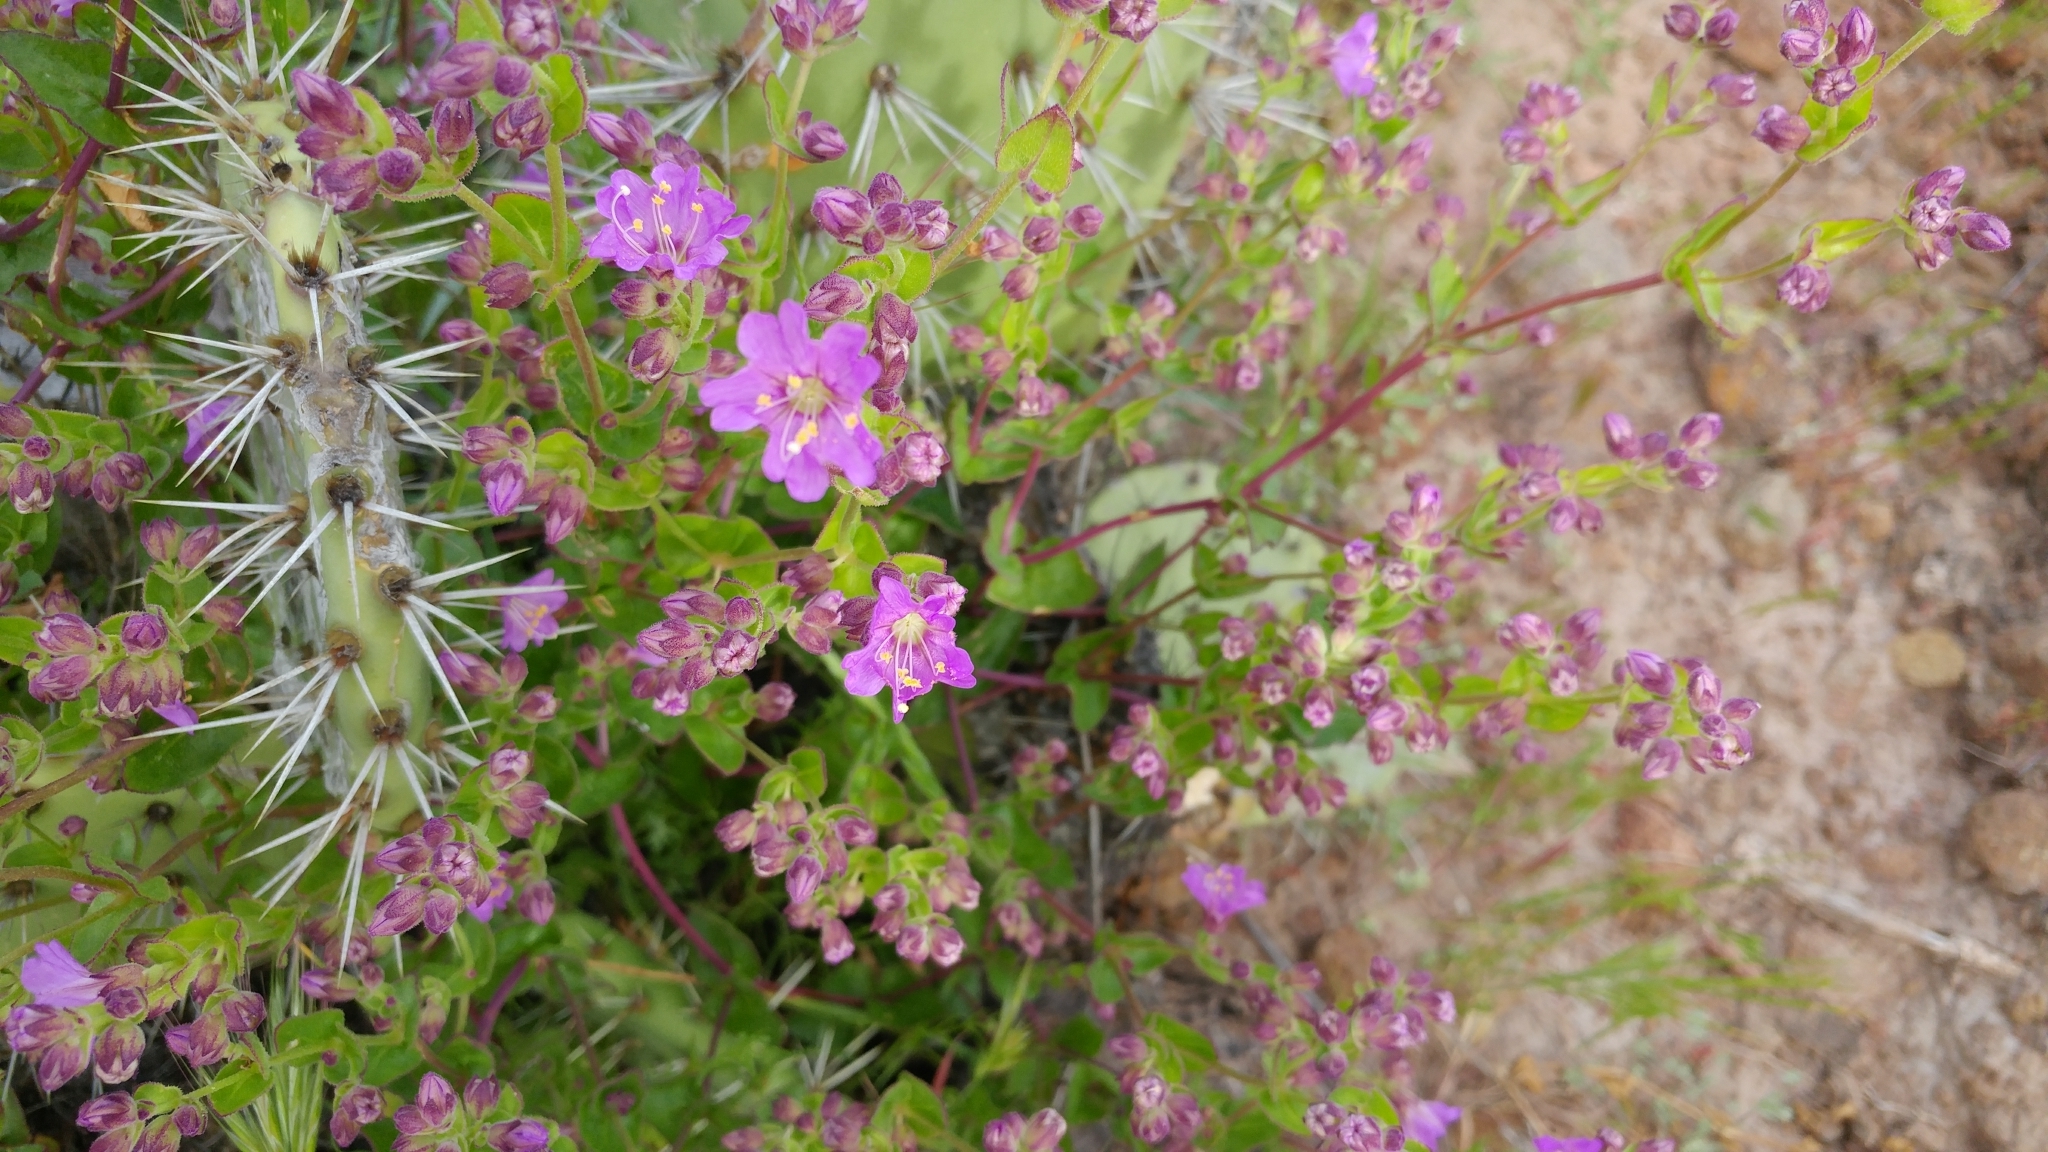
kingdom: Plantae
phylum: Tracheophyta
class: Magnoliopsida
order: Caryophyllales
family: Nyctaginaceae
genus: Mirabilis
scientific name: Mirabilis laevis
